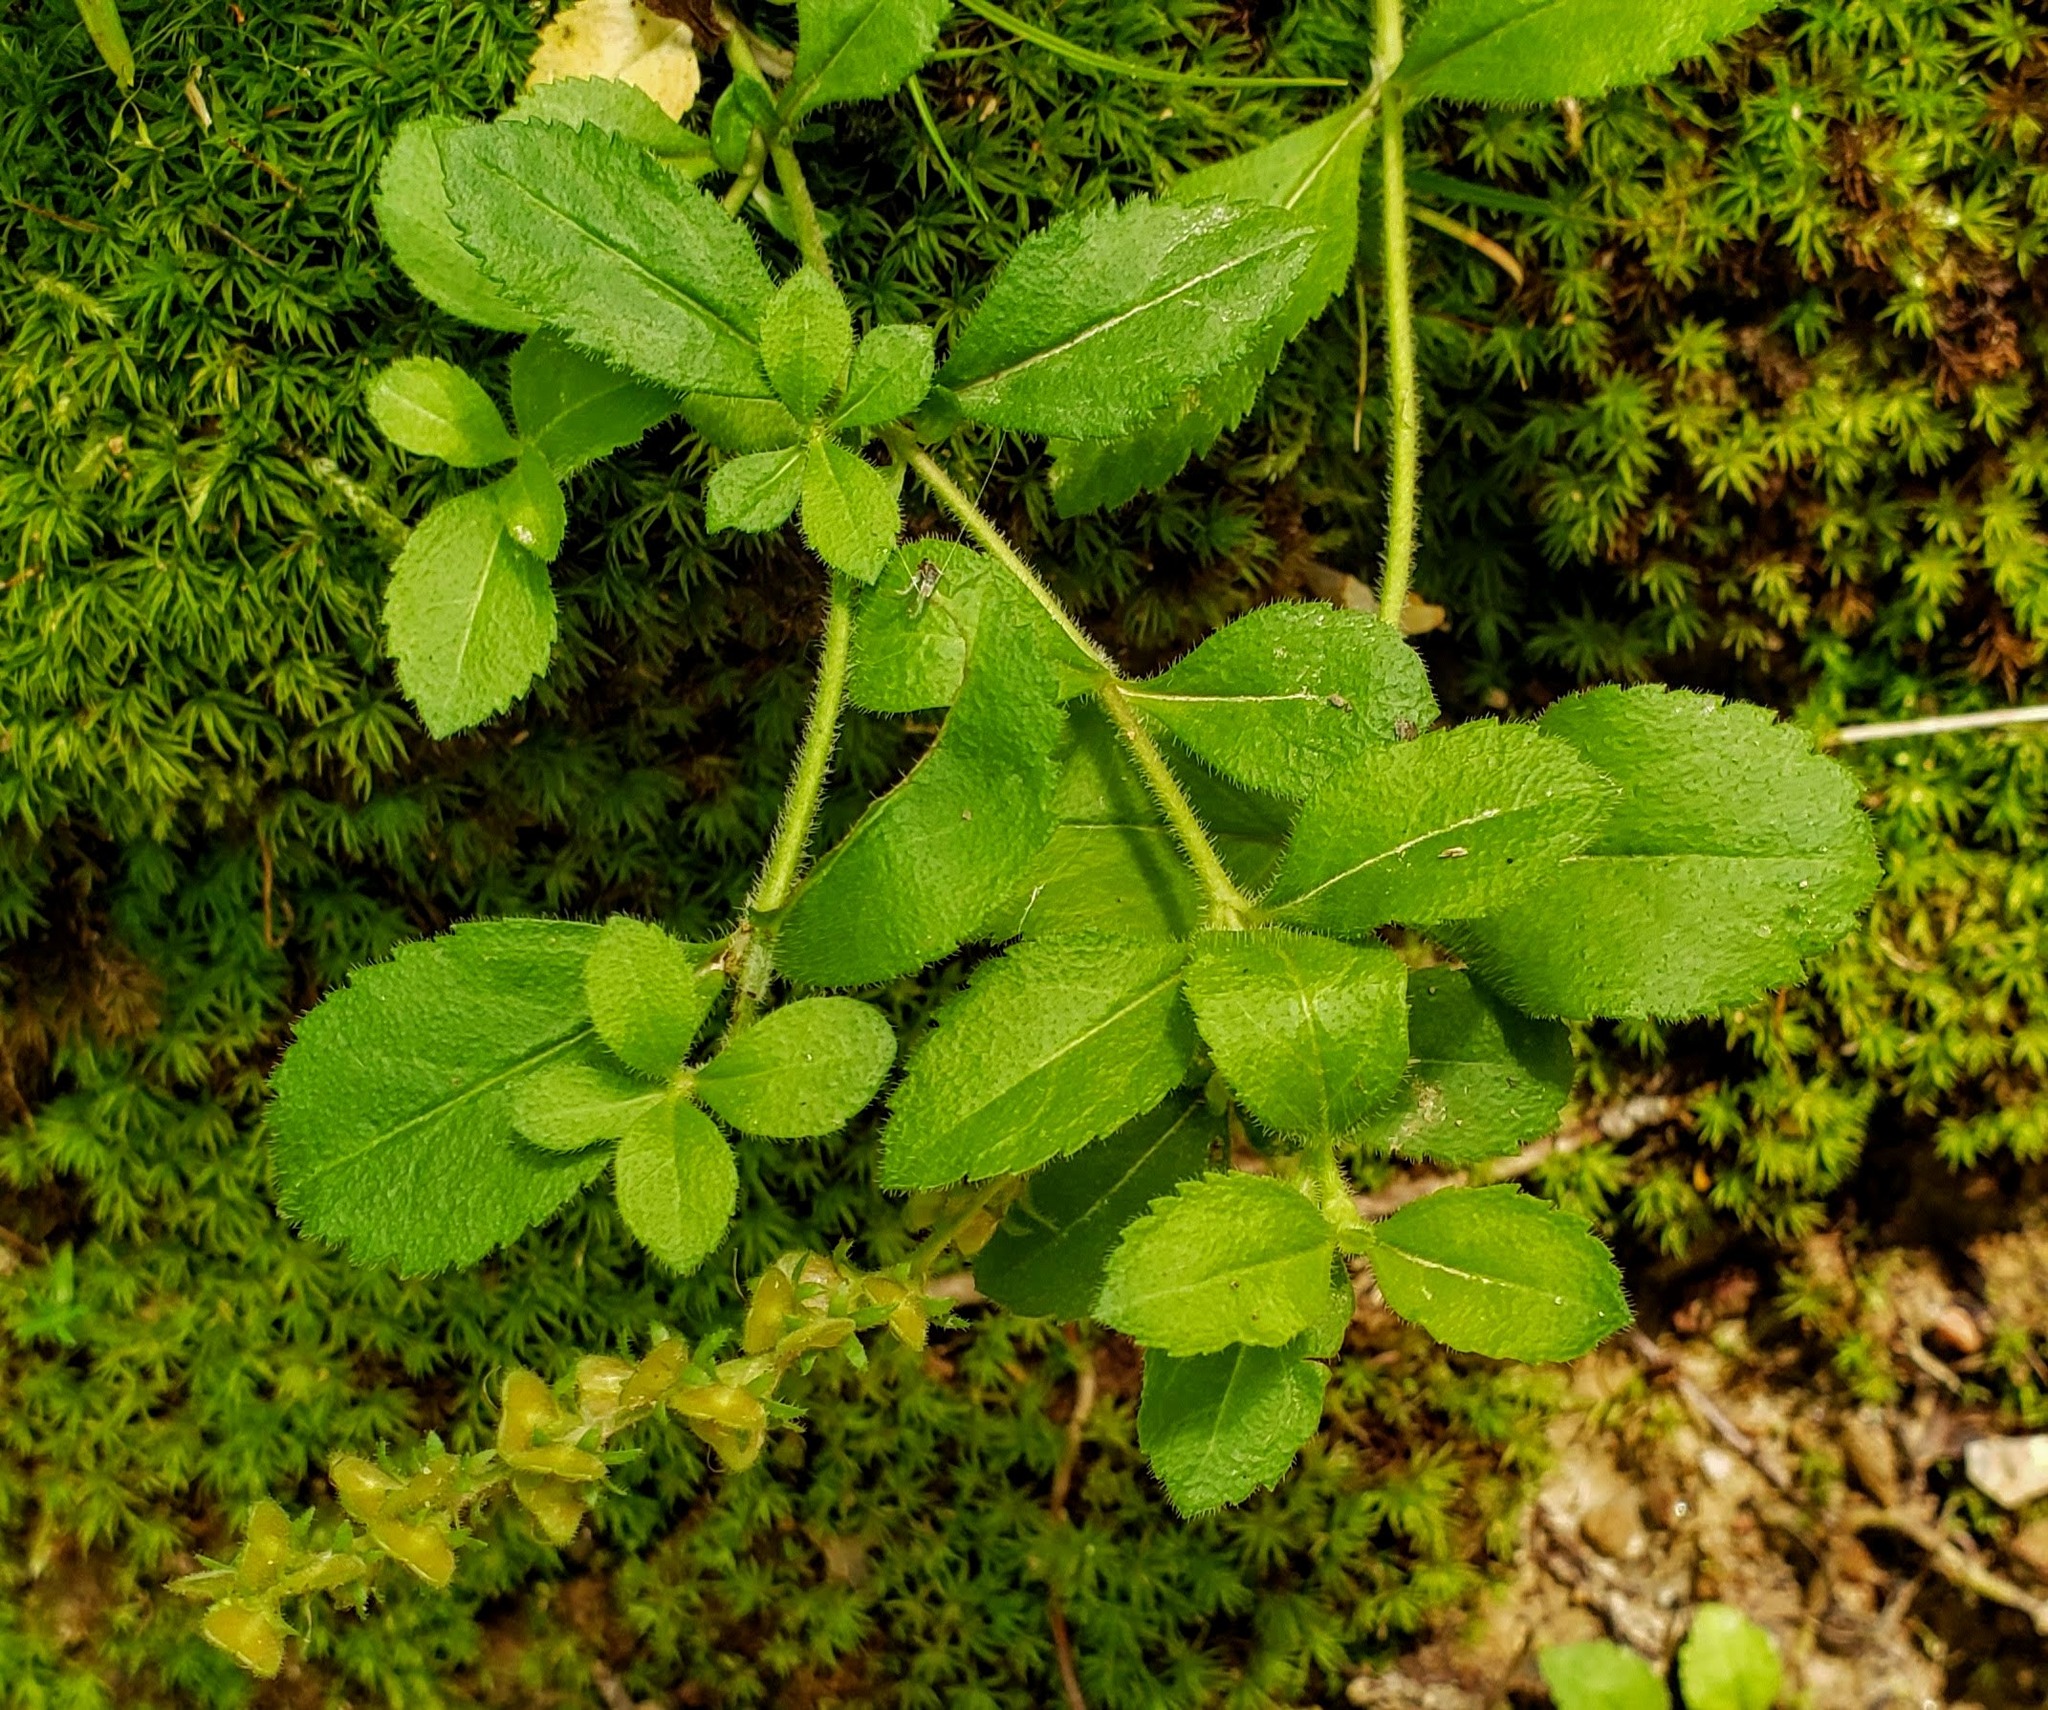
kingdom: Plantae
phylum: Tracheophyta
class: Magnoliopsida
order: Lamiales
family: Plantaginaceae
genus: Veronica
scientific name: Veronica officinalis
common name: Common speedwell
